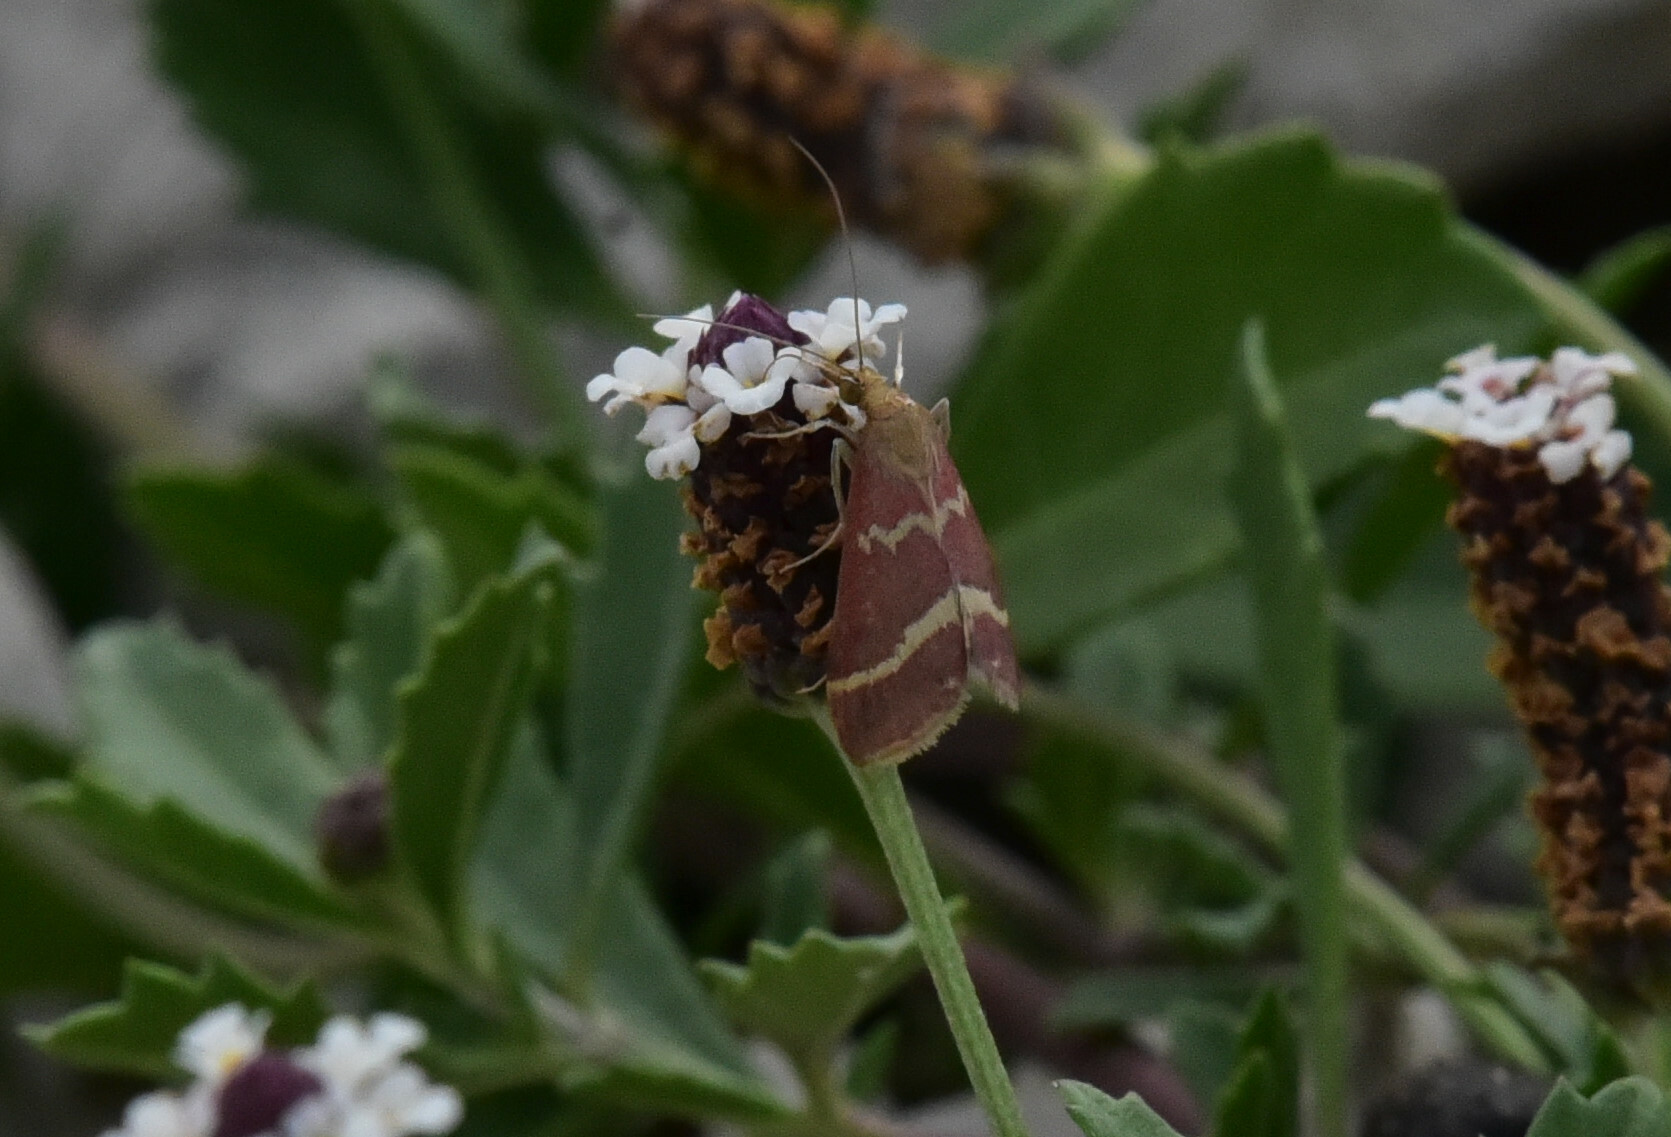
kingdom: Animalia
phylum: Arthropoda
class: Insecta
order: Lepidoptera
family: Crambidae
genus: Pyrausta
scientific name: Pyrausta volupialis
